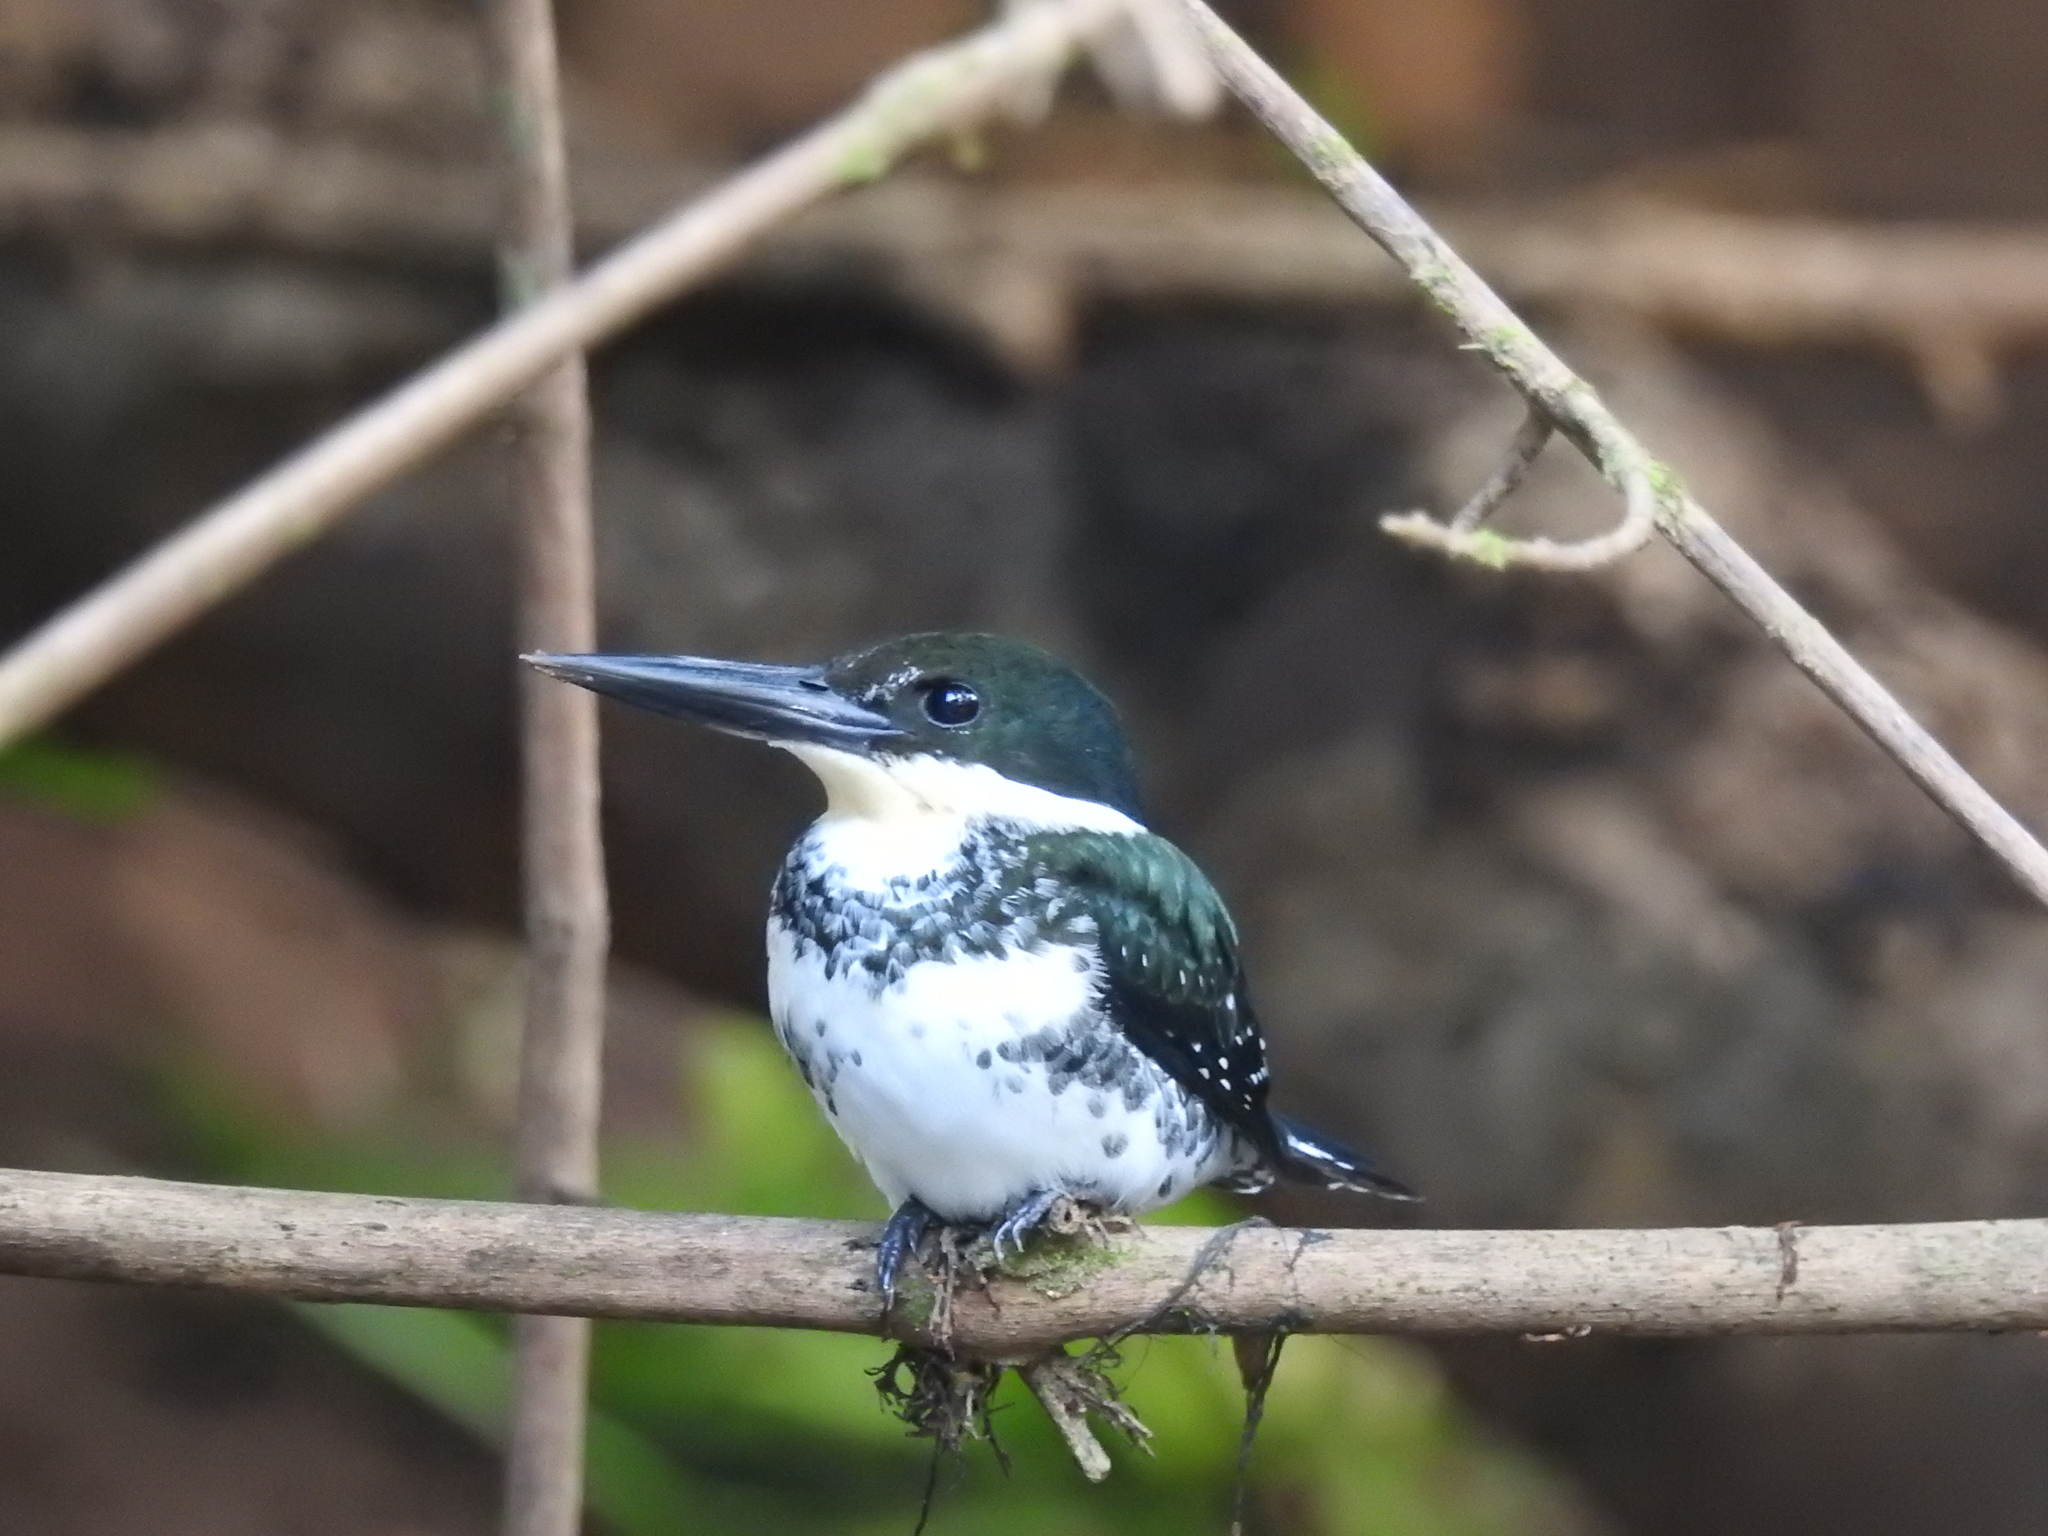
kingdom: Animalia
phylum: Chordata
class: Aves
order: Coraciiformes
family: Alcedinidae
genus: Chloroceryle
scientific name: Chloroceryle americana
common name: Green kingfisher
